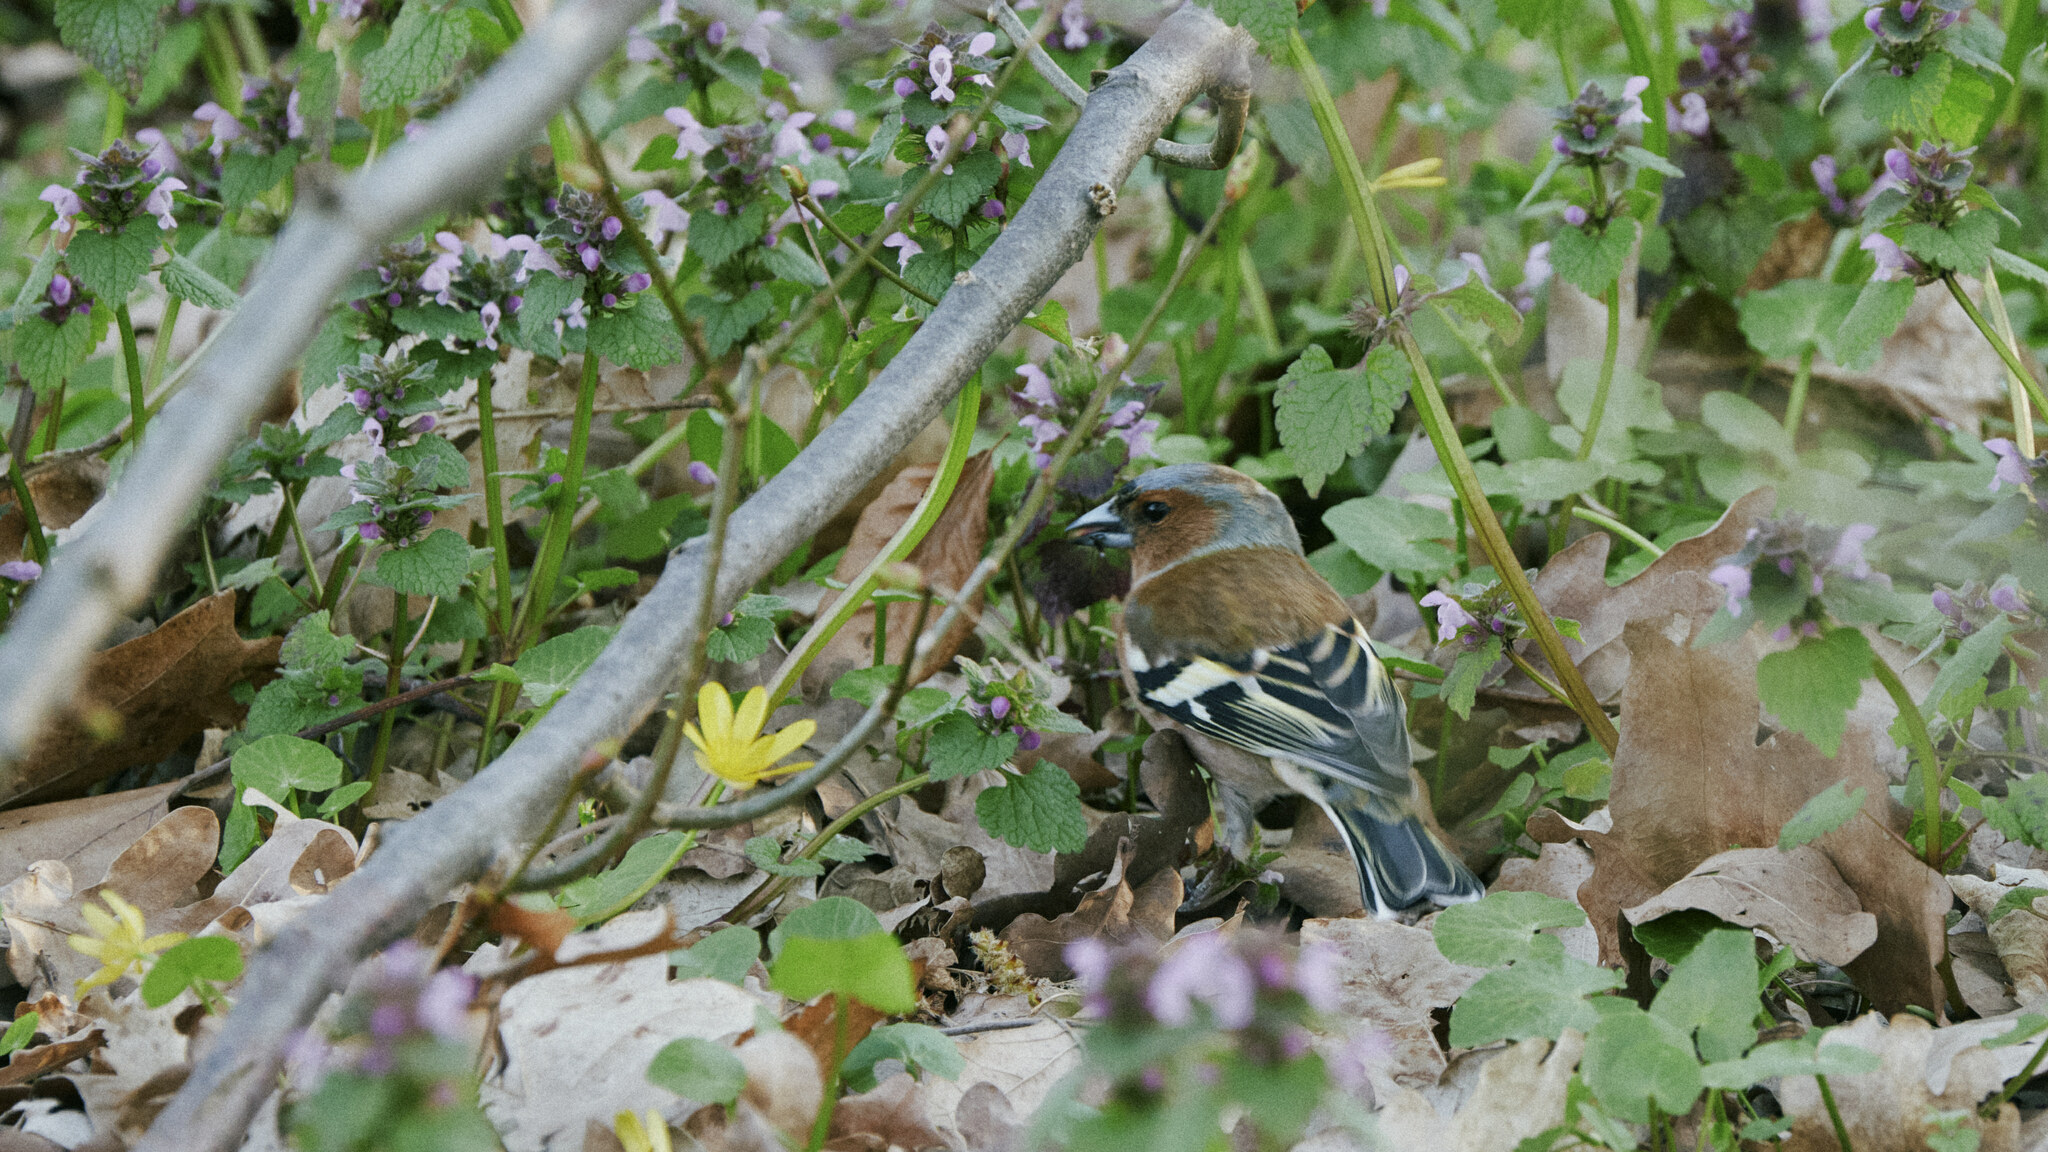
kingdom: Animalia
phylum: Chordata
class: Aves
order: Passeriformes
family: Fringillidae
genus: Fringilla
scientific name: Fringilla coelebs
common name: Common chaffinch
